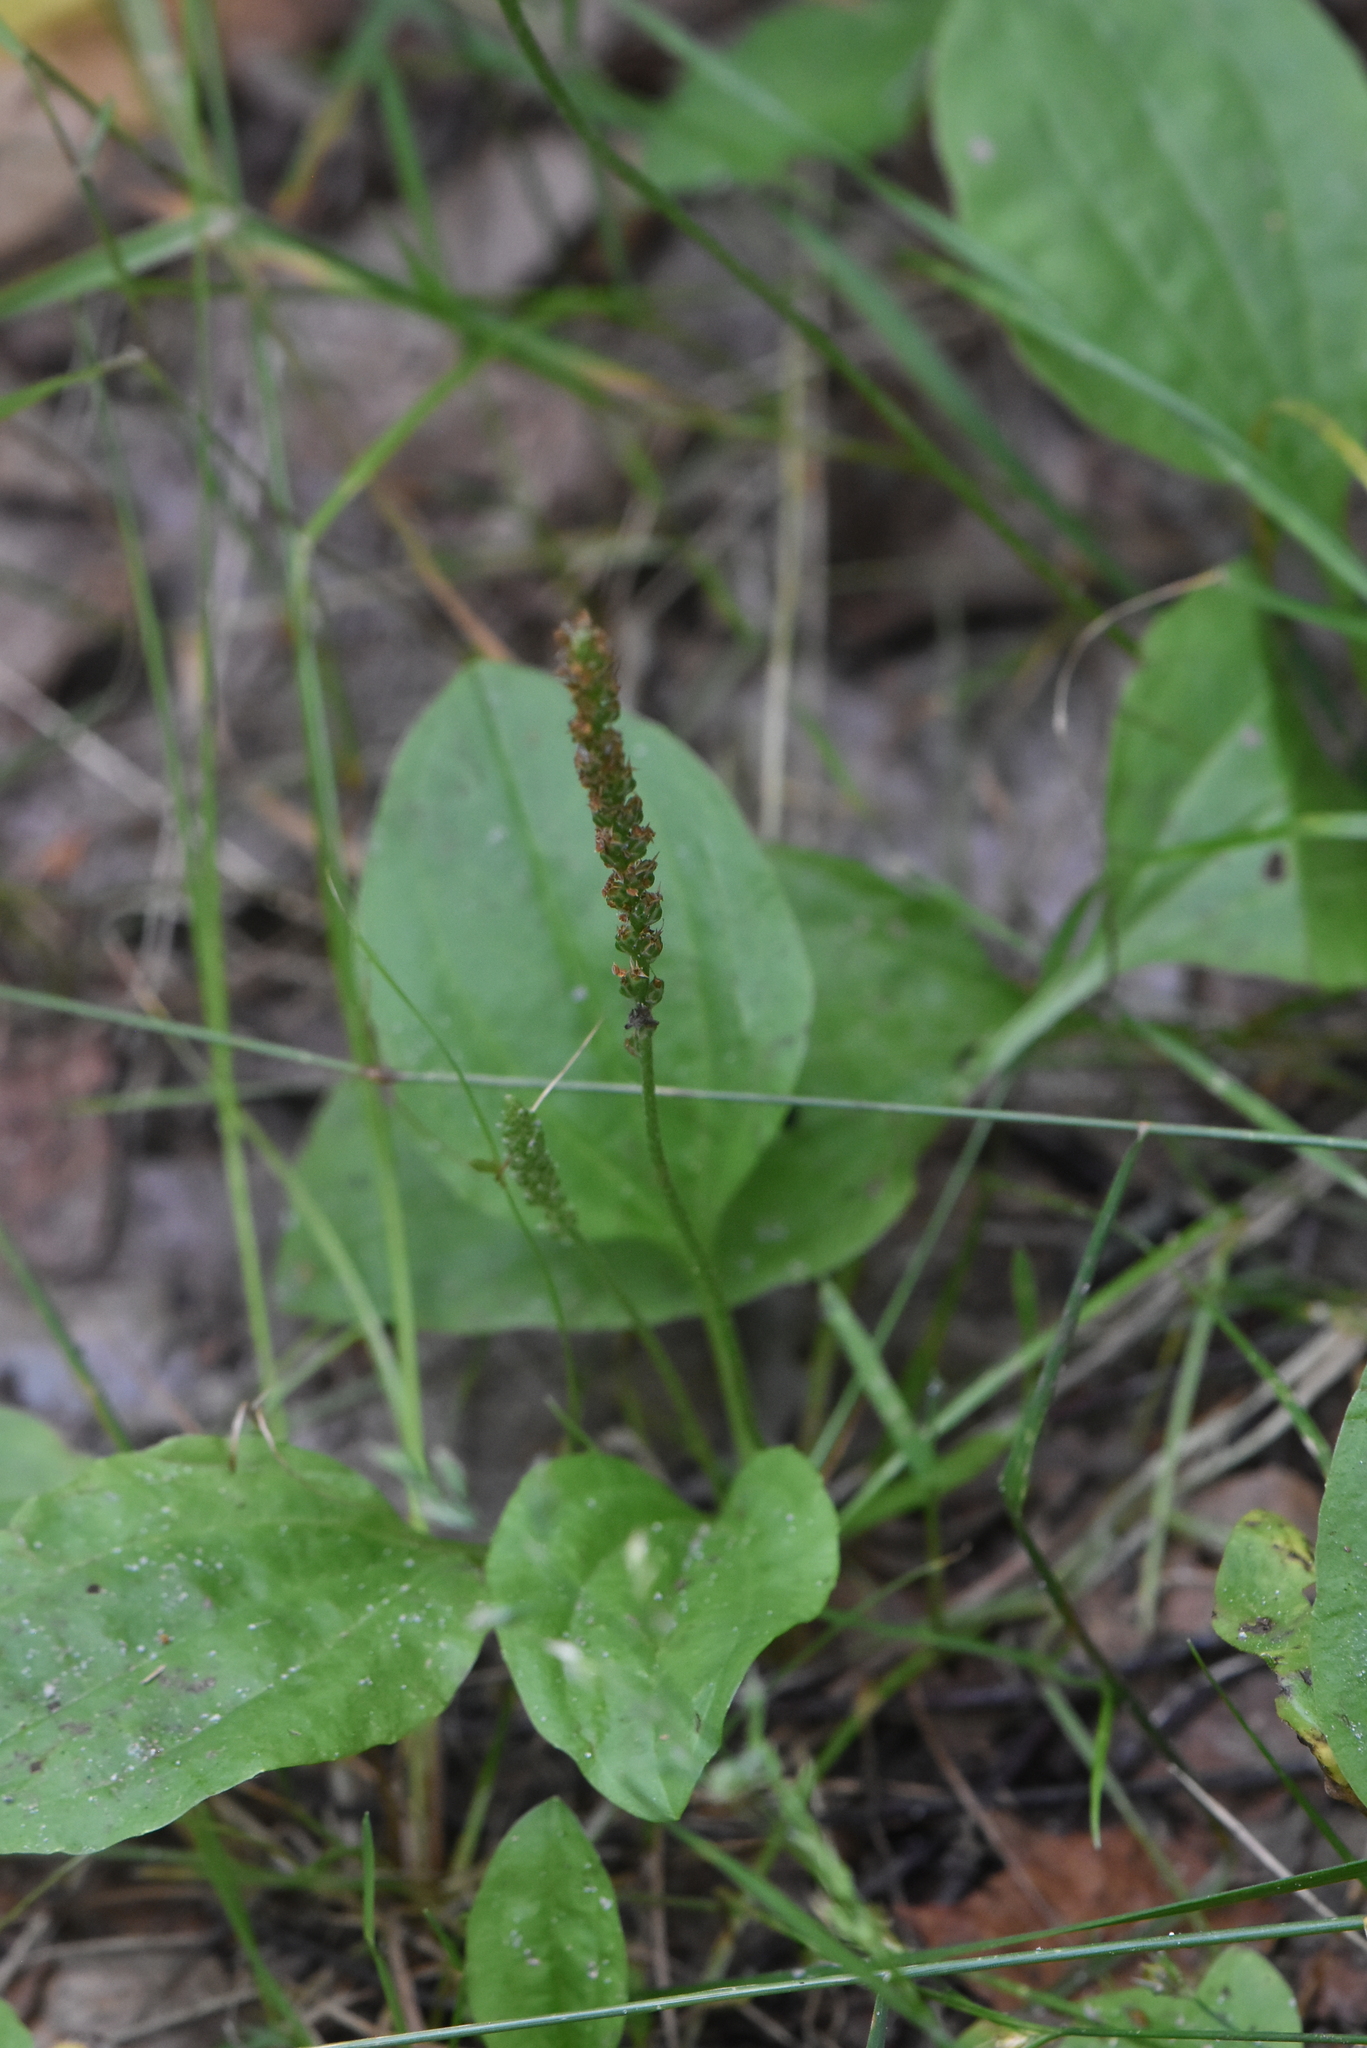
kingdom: Plantae
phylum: Tracheophyta
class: Magnoliopsida
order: Lamiales
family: Plantaginaceae
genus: Plantago
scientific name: Plantago major
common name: Common plantain
